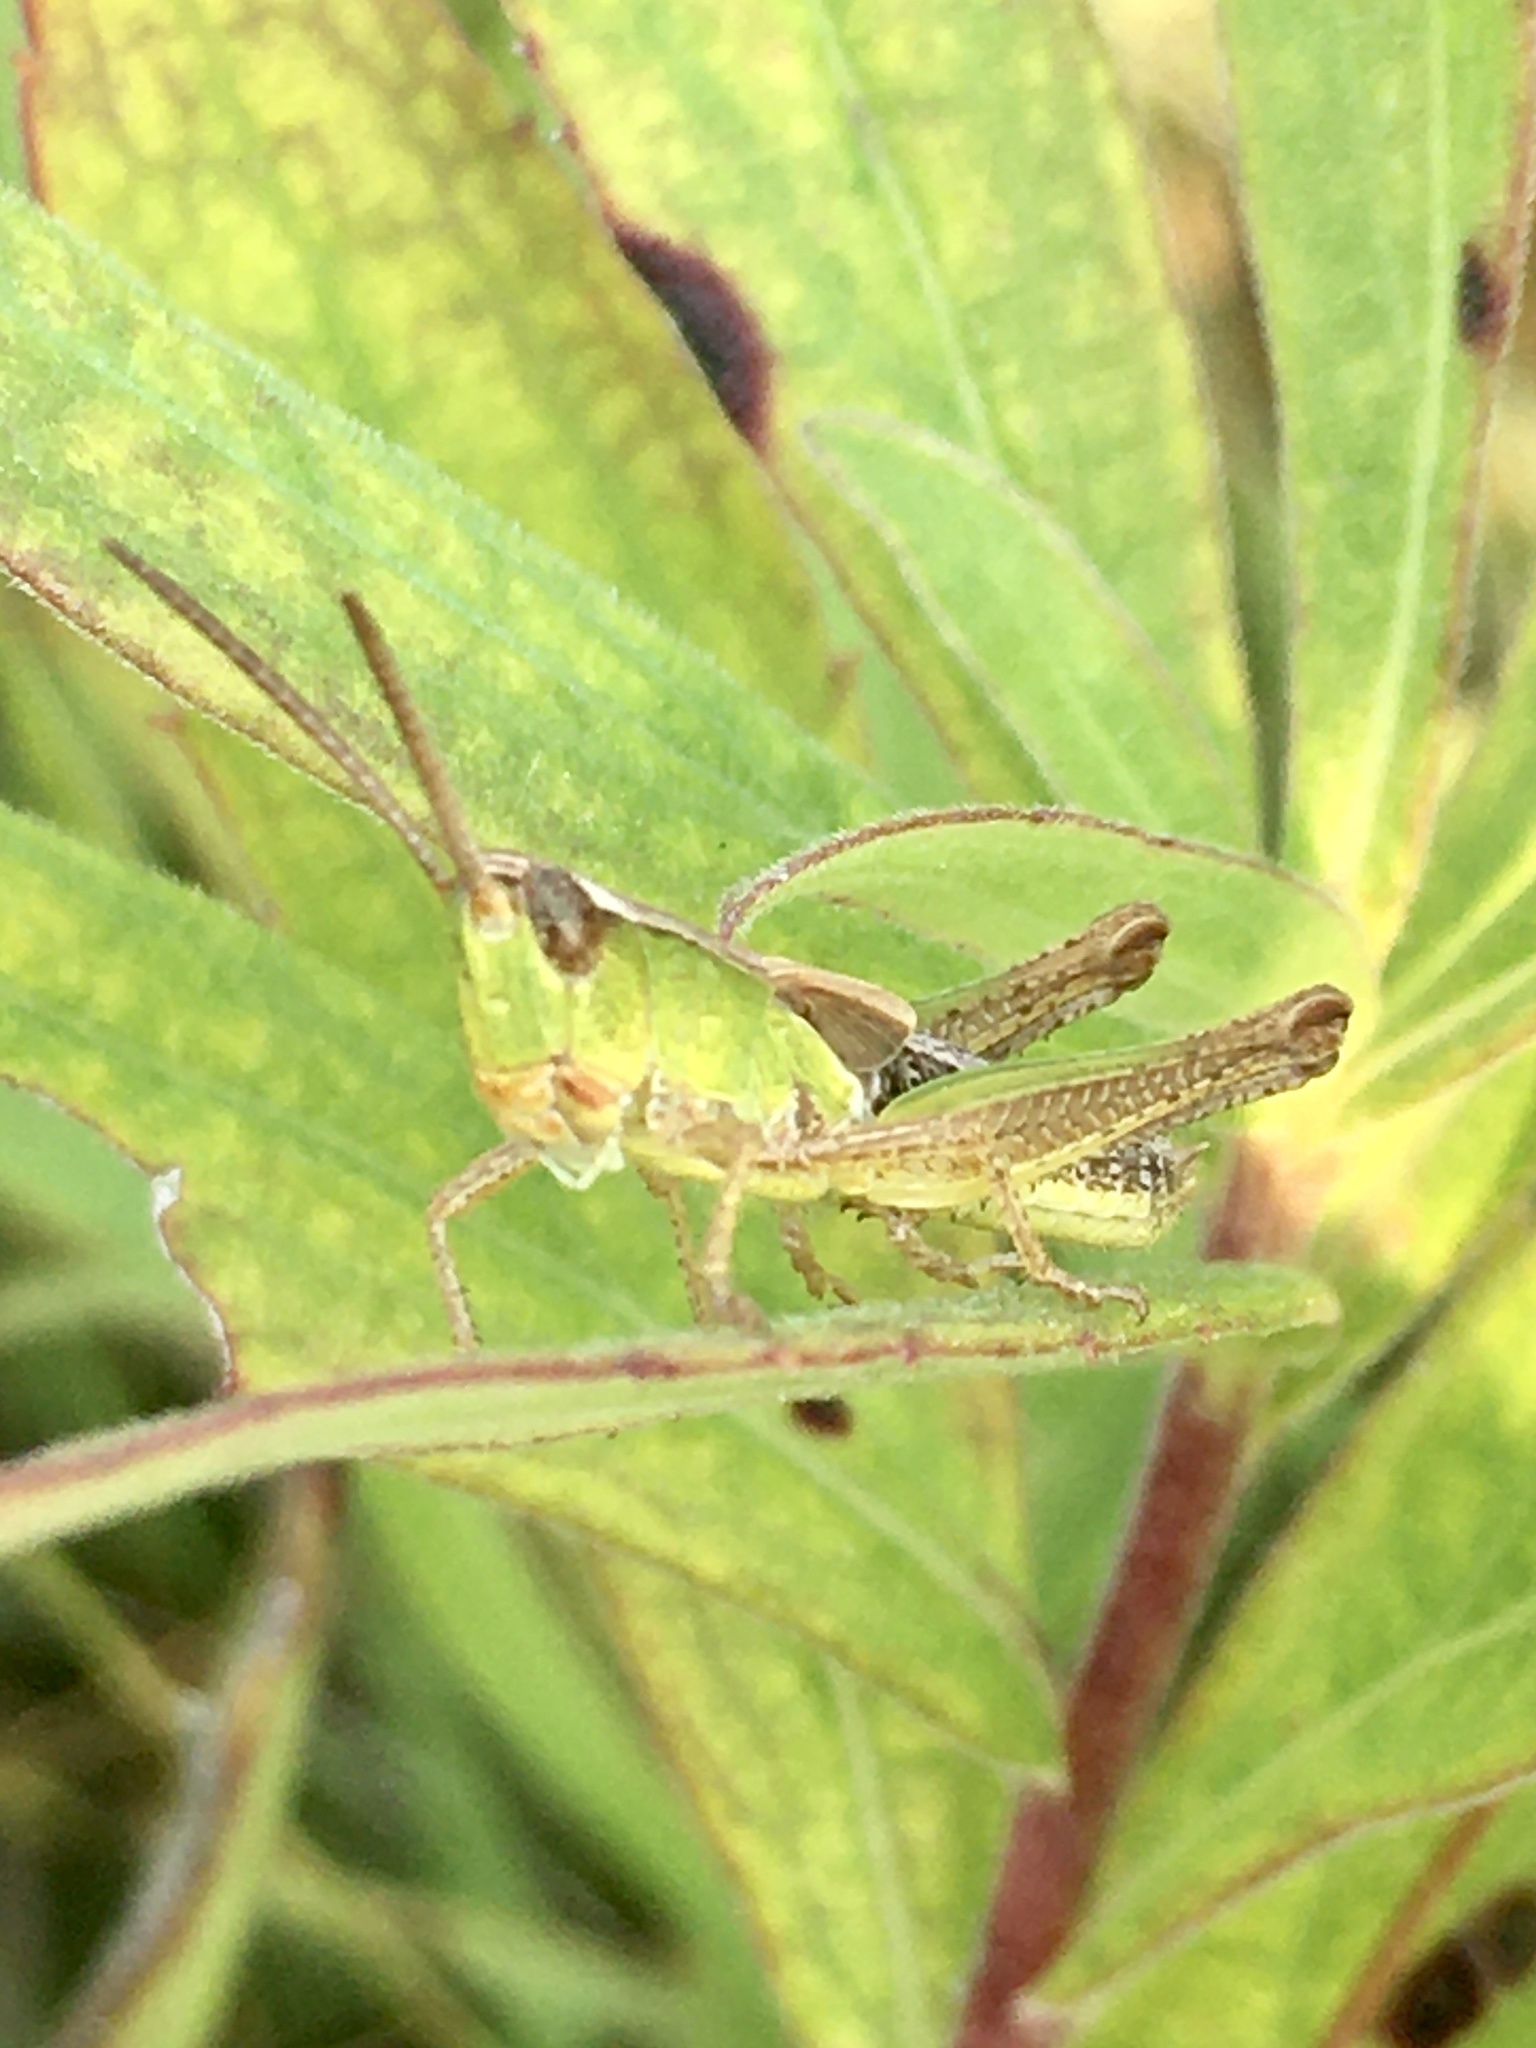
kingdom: Animalia
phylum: Arthropoda
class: Insecta
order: Orthoptera
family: Acrididae
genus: Pseudochorthippus
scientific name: Pseudochorthippus curtipennis
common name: Marsh meadow grasshopper
